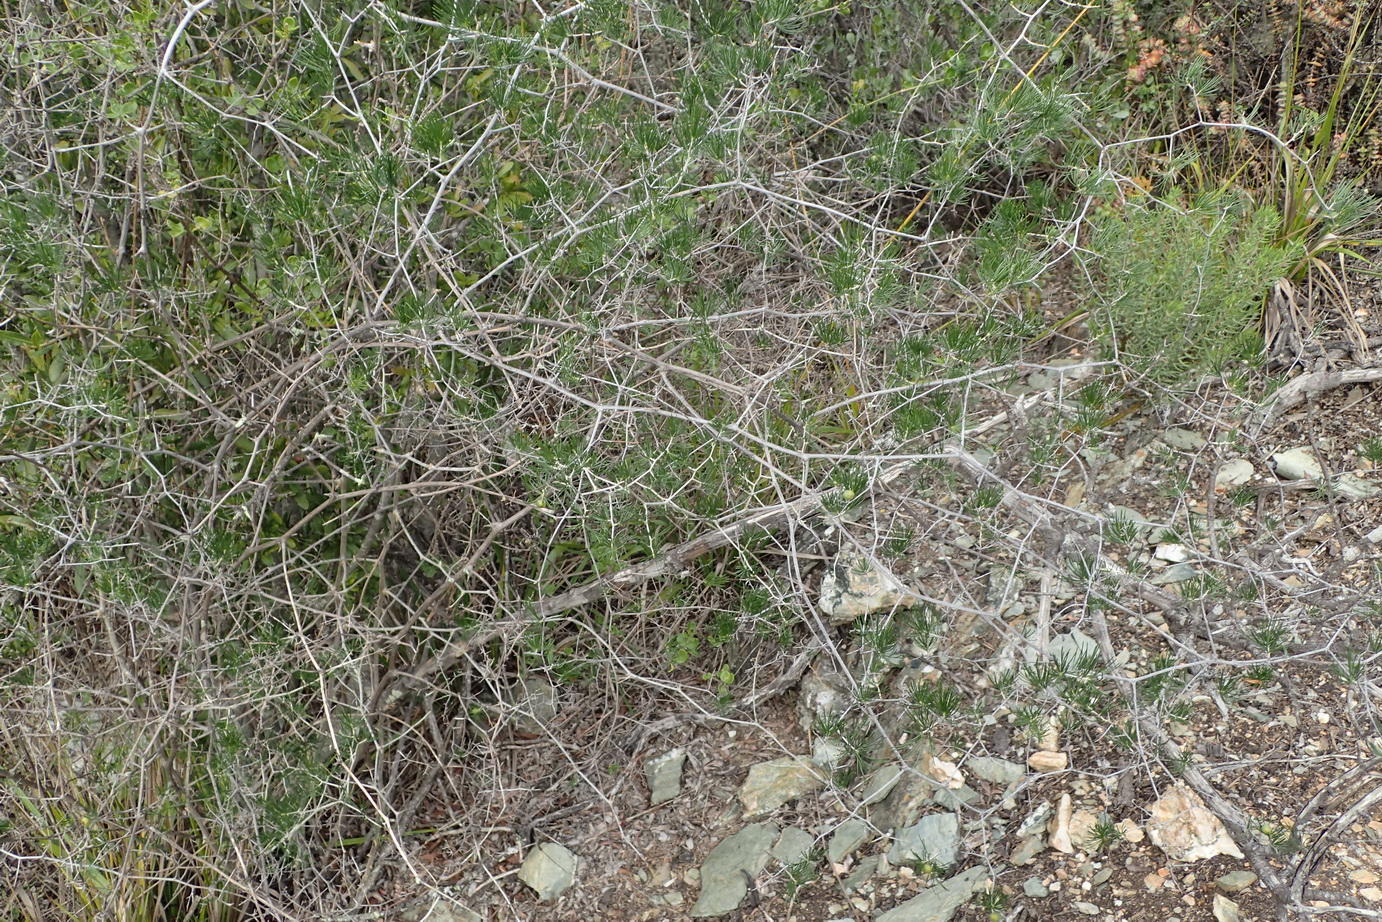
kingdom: Plantae
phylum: Tracheophyta
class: Liliopsida
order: Asparagales
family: Asparagaceae
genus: Asparagus
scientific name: Asparagus retrofractus
